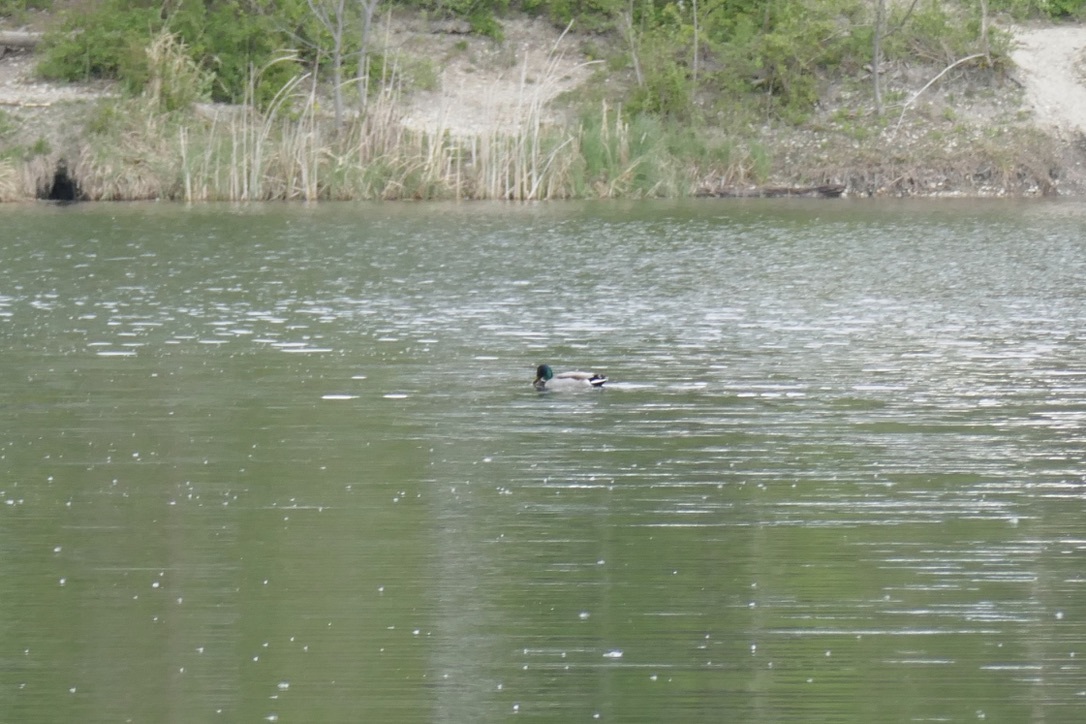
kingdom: Animalia
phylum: Chordata
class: Aves
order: Anseriformes
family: Anatidae
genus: Anas
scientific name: Anas platyrhynchos
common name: Mallard
